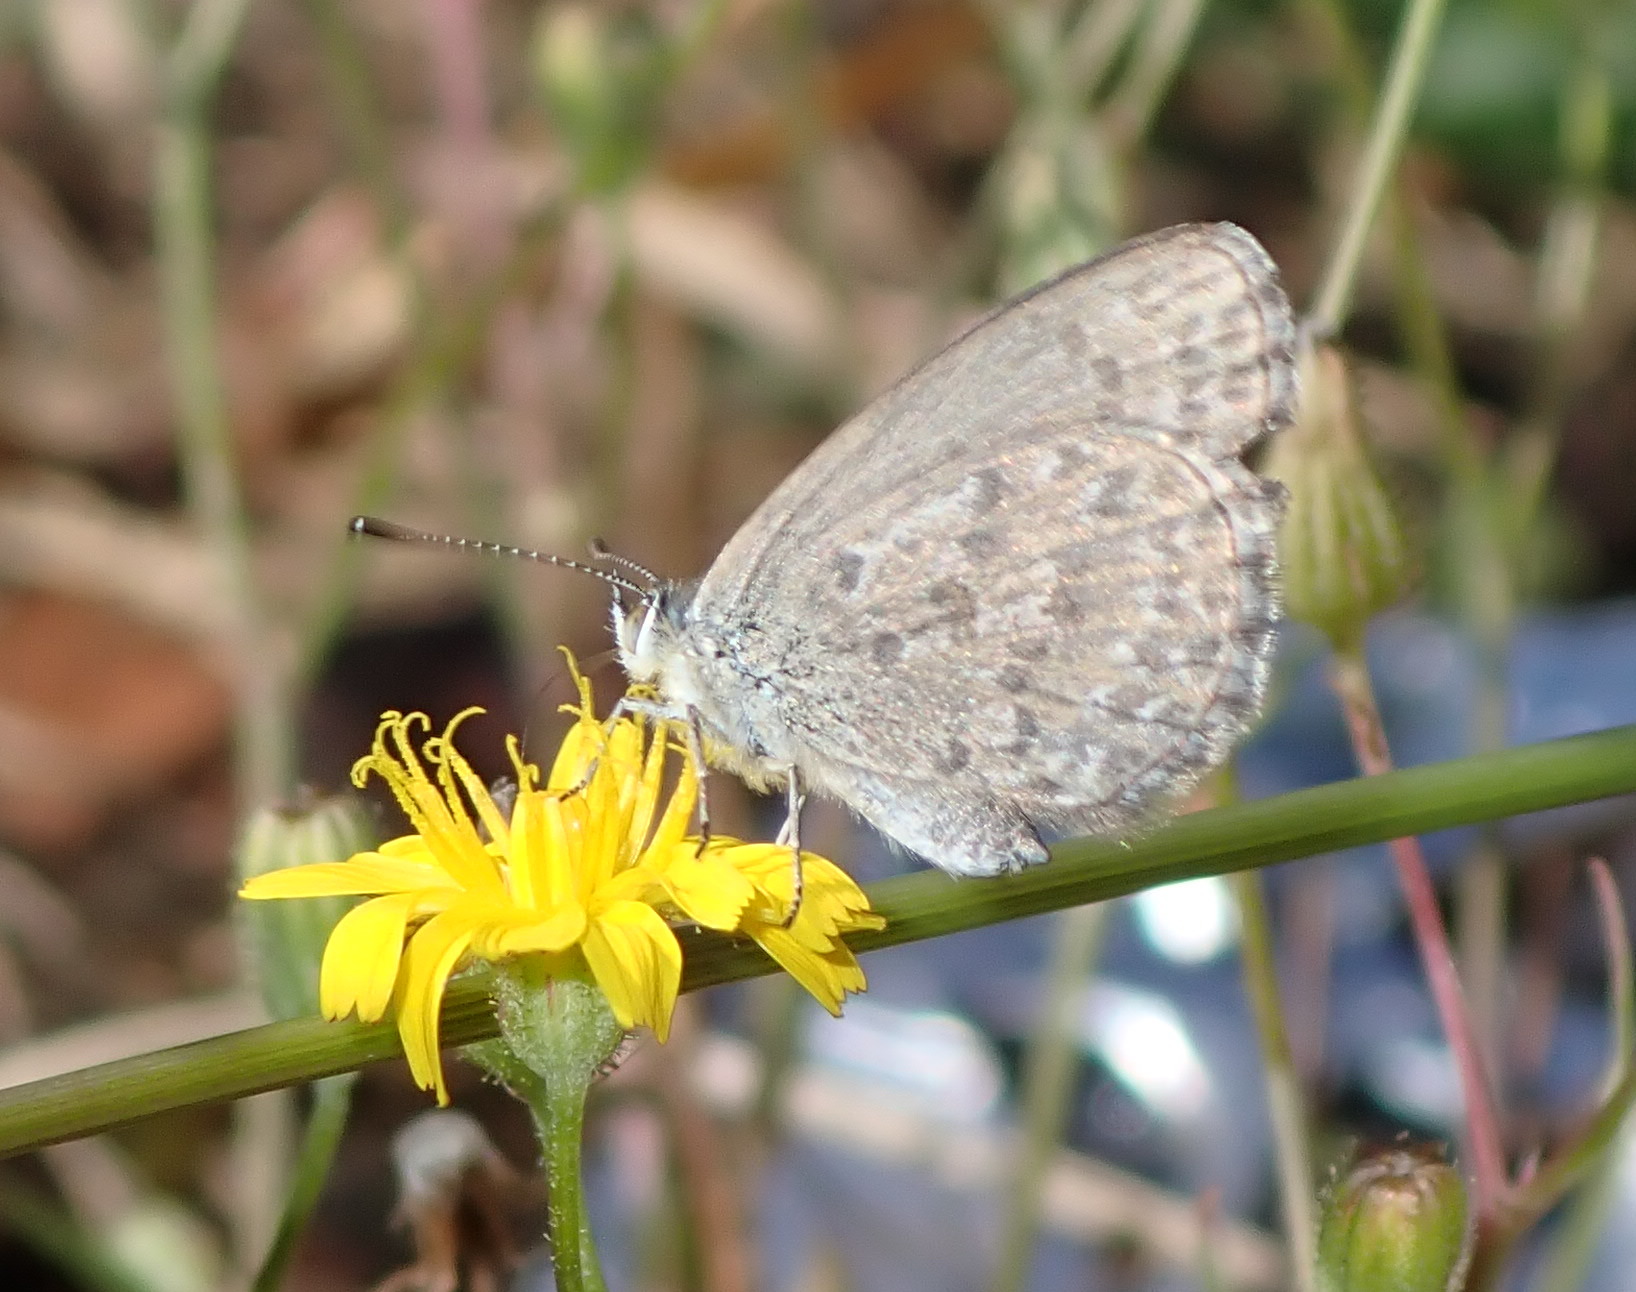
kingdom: Animalia
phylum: Arthropoda
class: Insecta
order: Lepidoptera
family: Lycaenidae
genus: Zizina
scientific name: Zizina labradus
